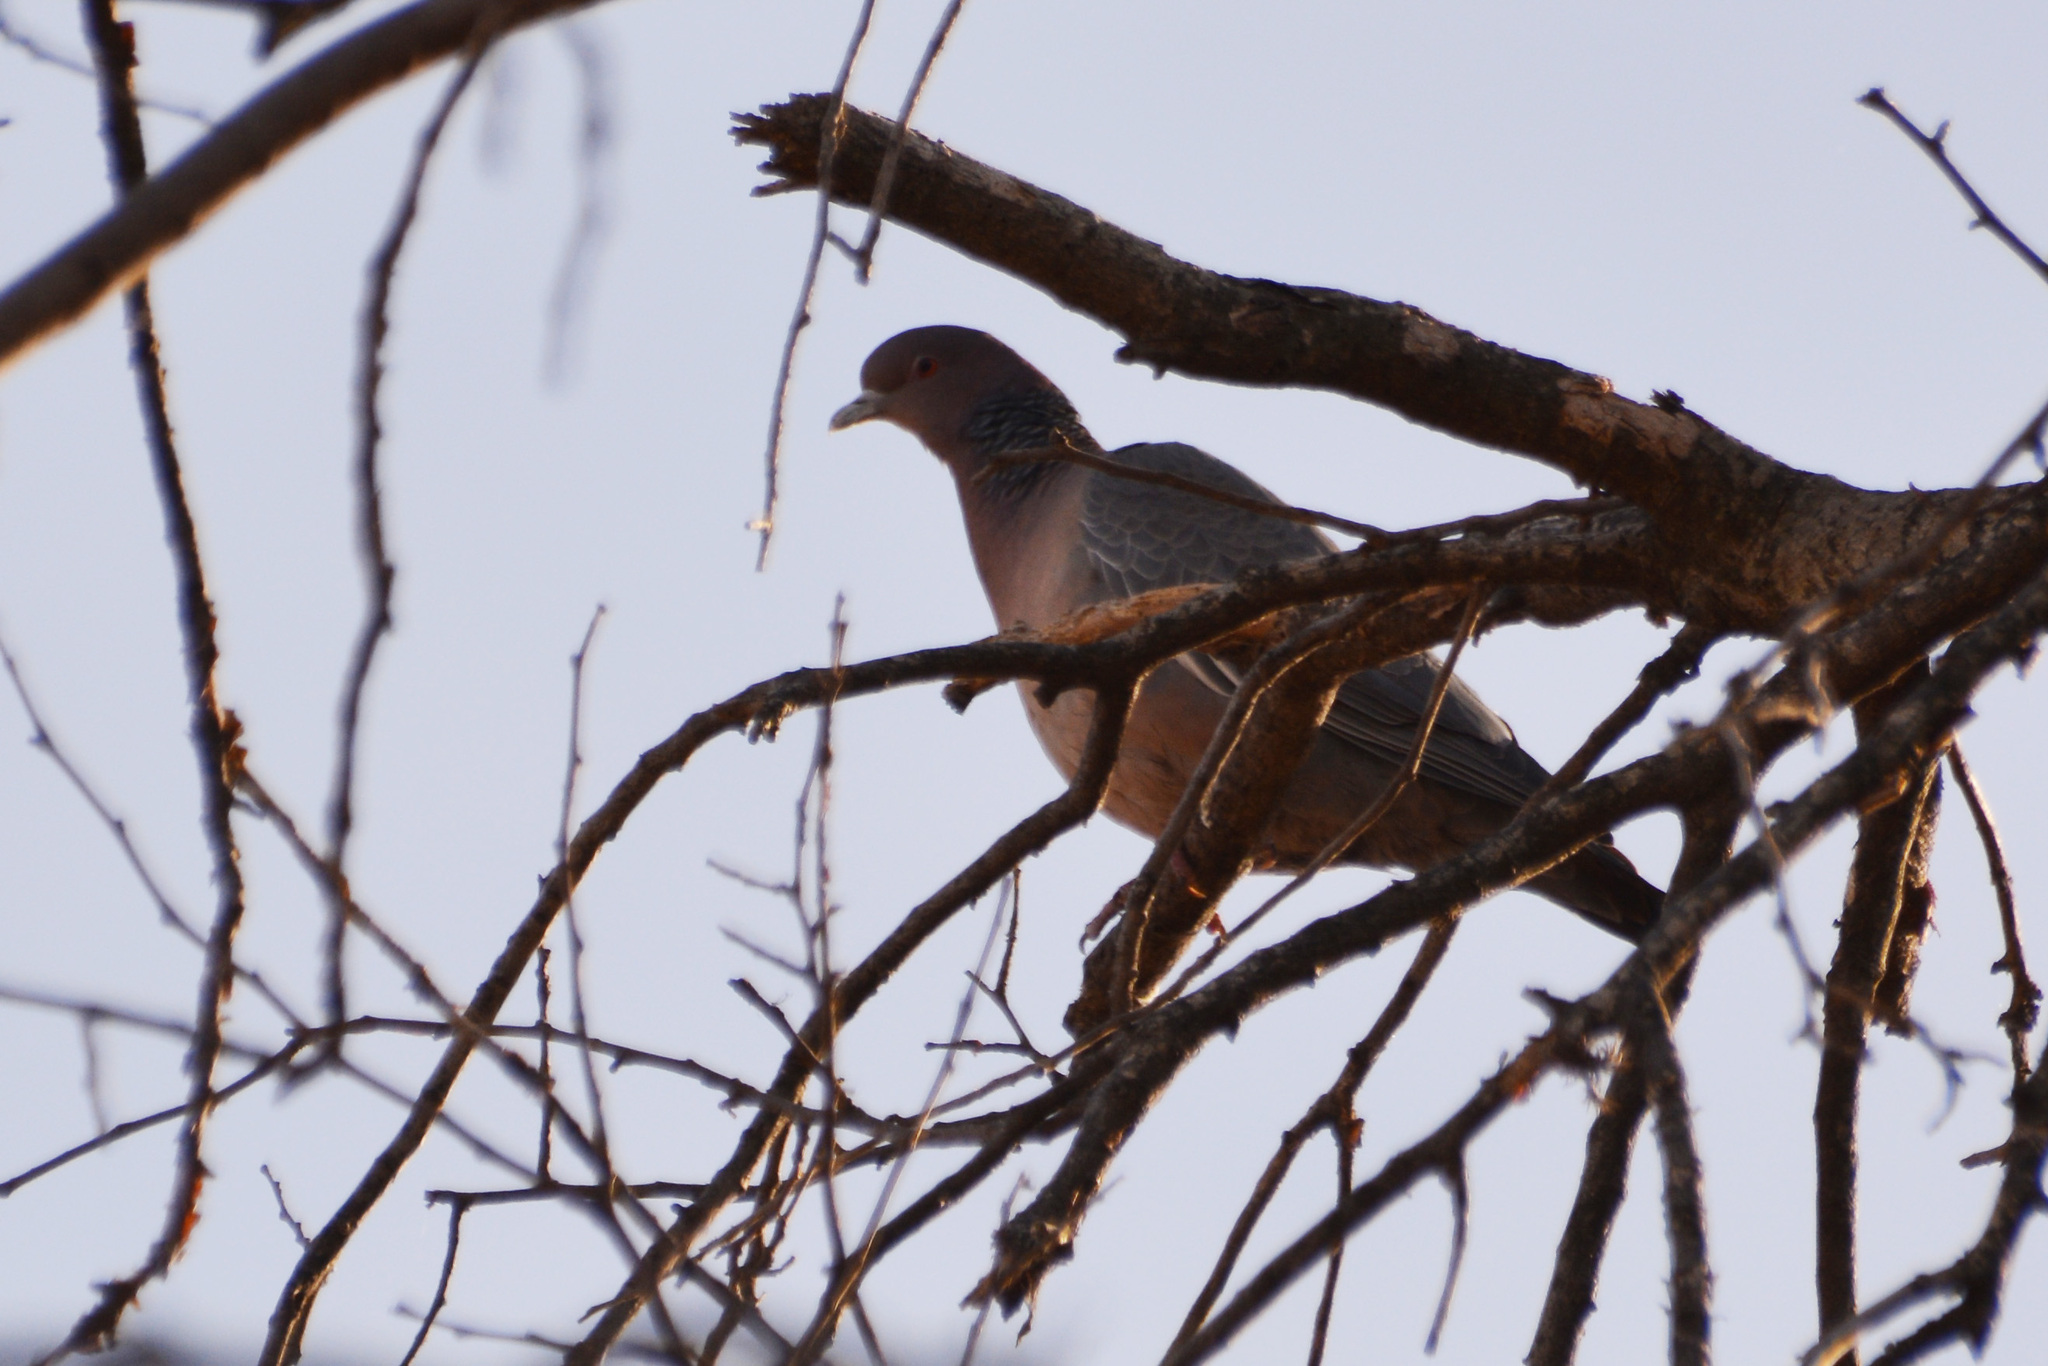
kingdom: Animalia
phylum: Chordata
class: Aves
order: Columbiformes
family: Columbidae
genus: Patagioenas
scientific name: Patagioenas picazuro
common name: Picazuro pigeon
